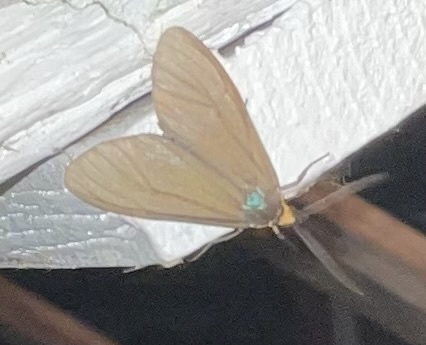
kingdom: Animalia
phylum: Arthropoda
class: Insecta
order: Lepidoptera
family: Erebidae
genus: Ctenucha
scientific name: Ctenucha virginica
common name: Virginia ctenucha moth
